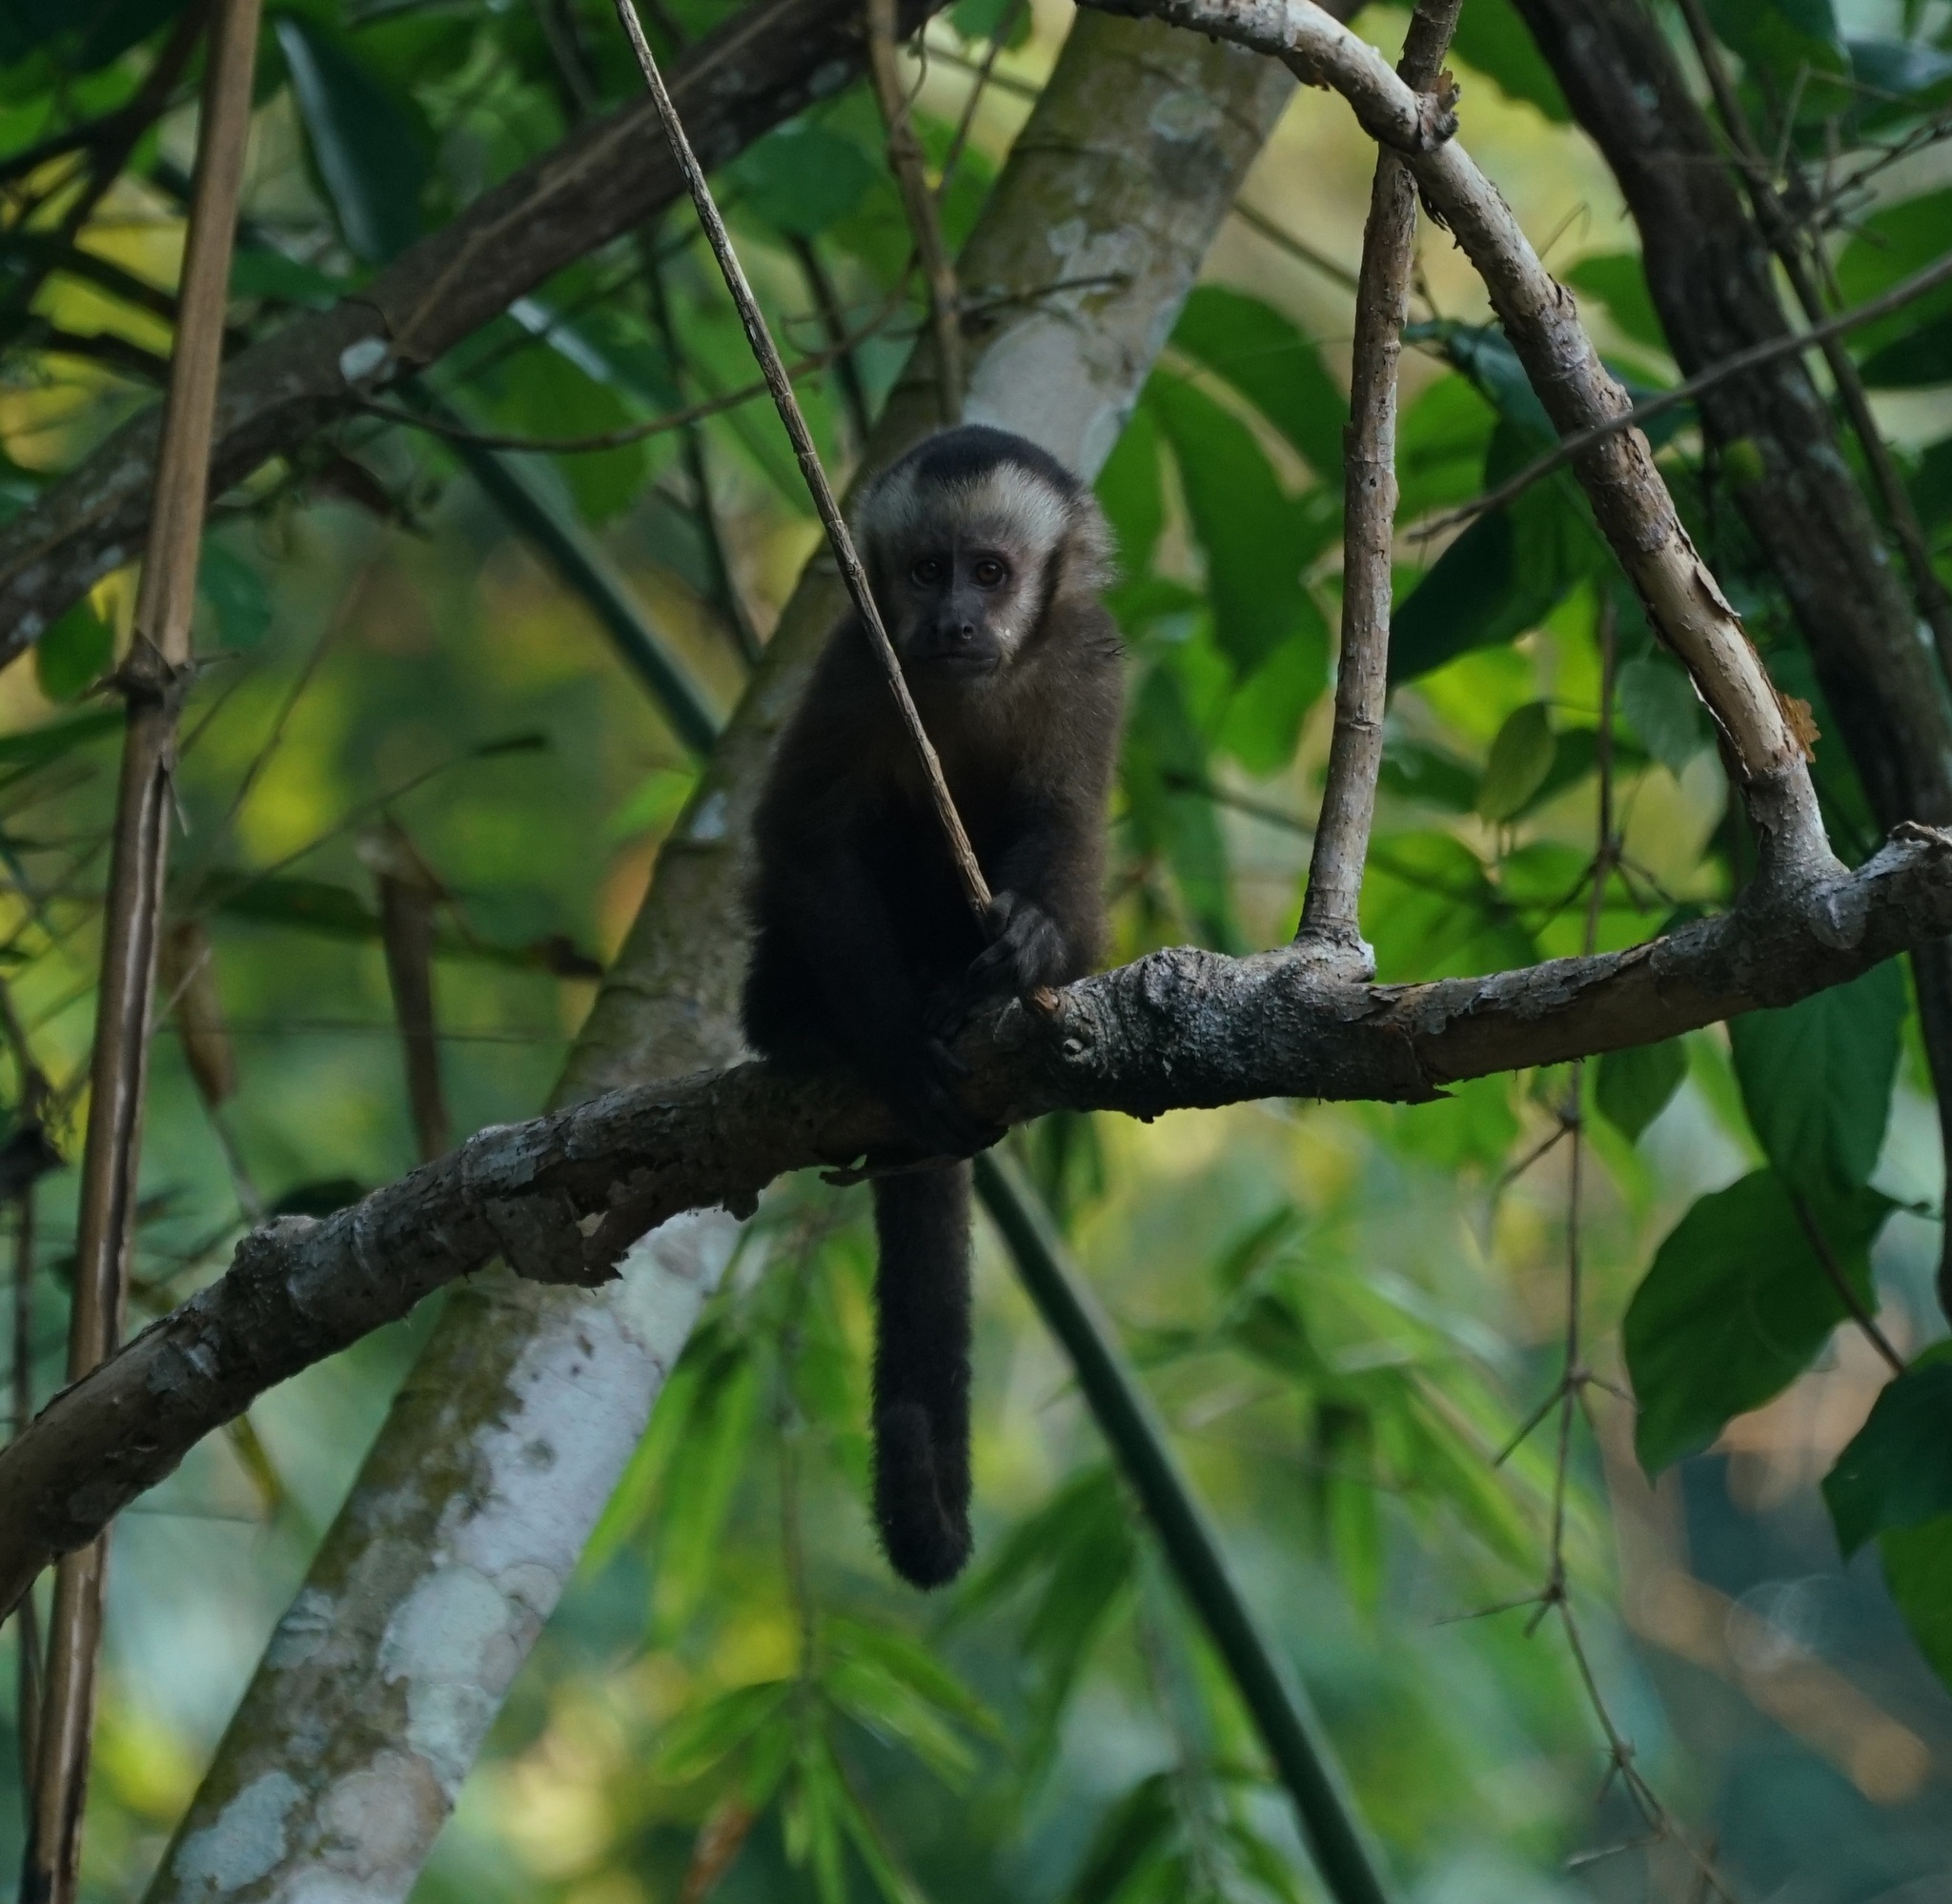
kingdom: Animalia
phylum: Chordata
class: Mammalia
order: Primates
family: Cebidae
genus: Sapajus
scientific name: Sapajus apella
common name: Tufted capuchin
